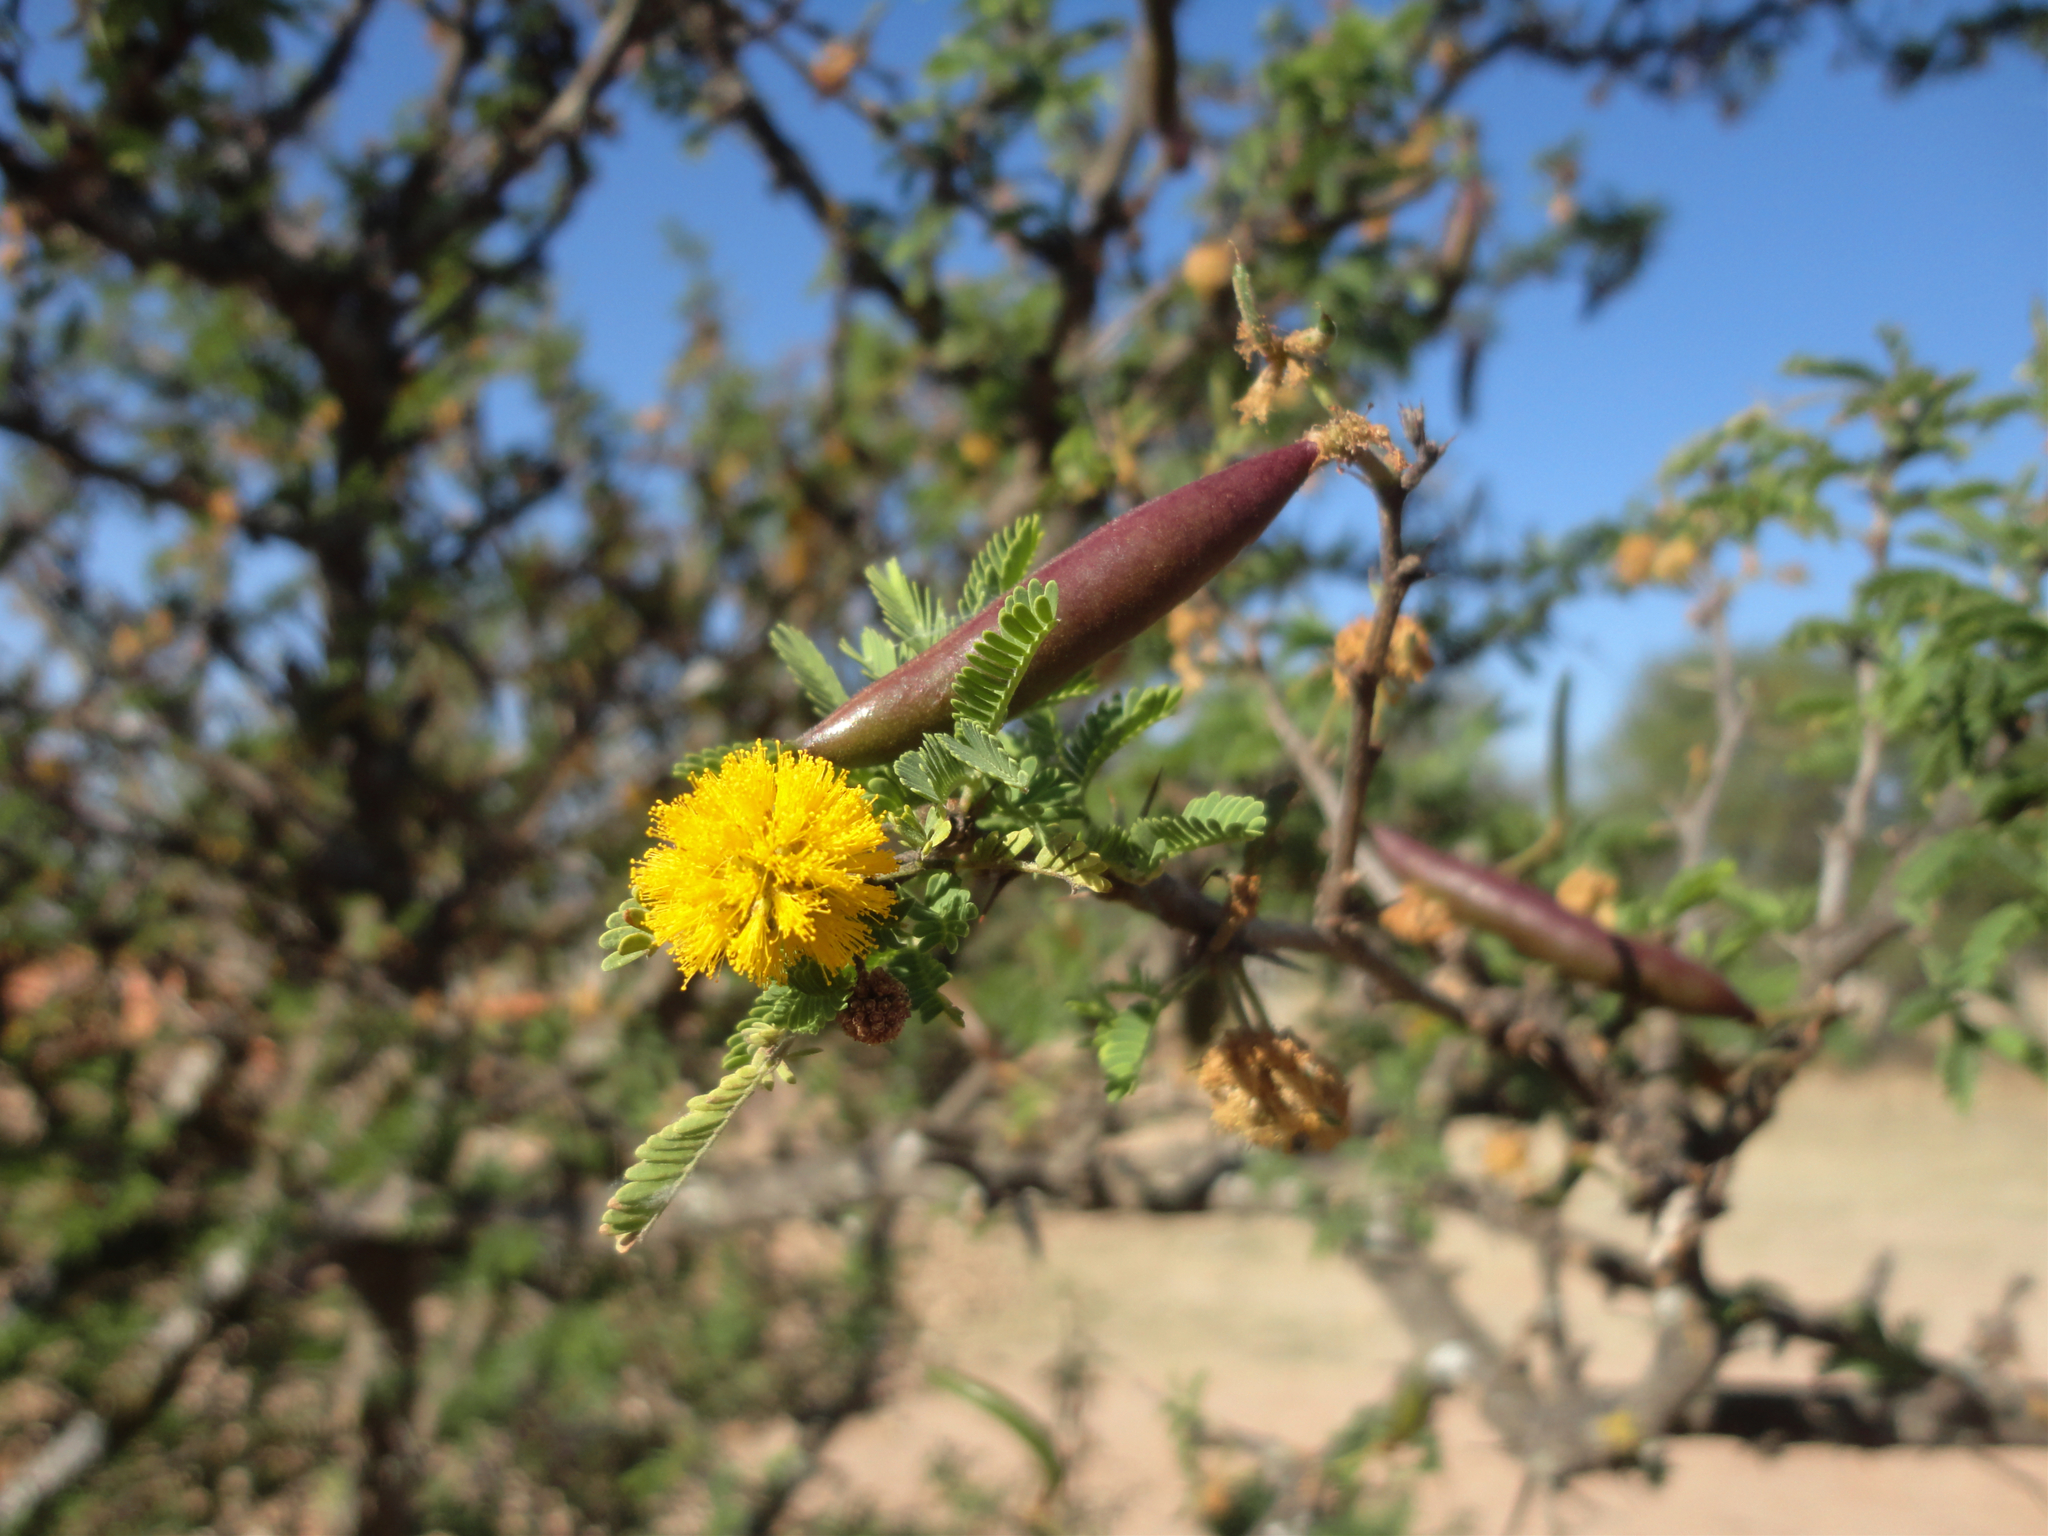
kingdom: Plantae
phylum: Tracheophyta
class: Magnoliopsida
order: Fabales
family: Fabaceae
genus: Vachellia
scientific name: Vachellia farnesiana
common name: Sweet acacia
